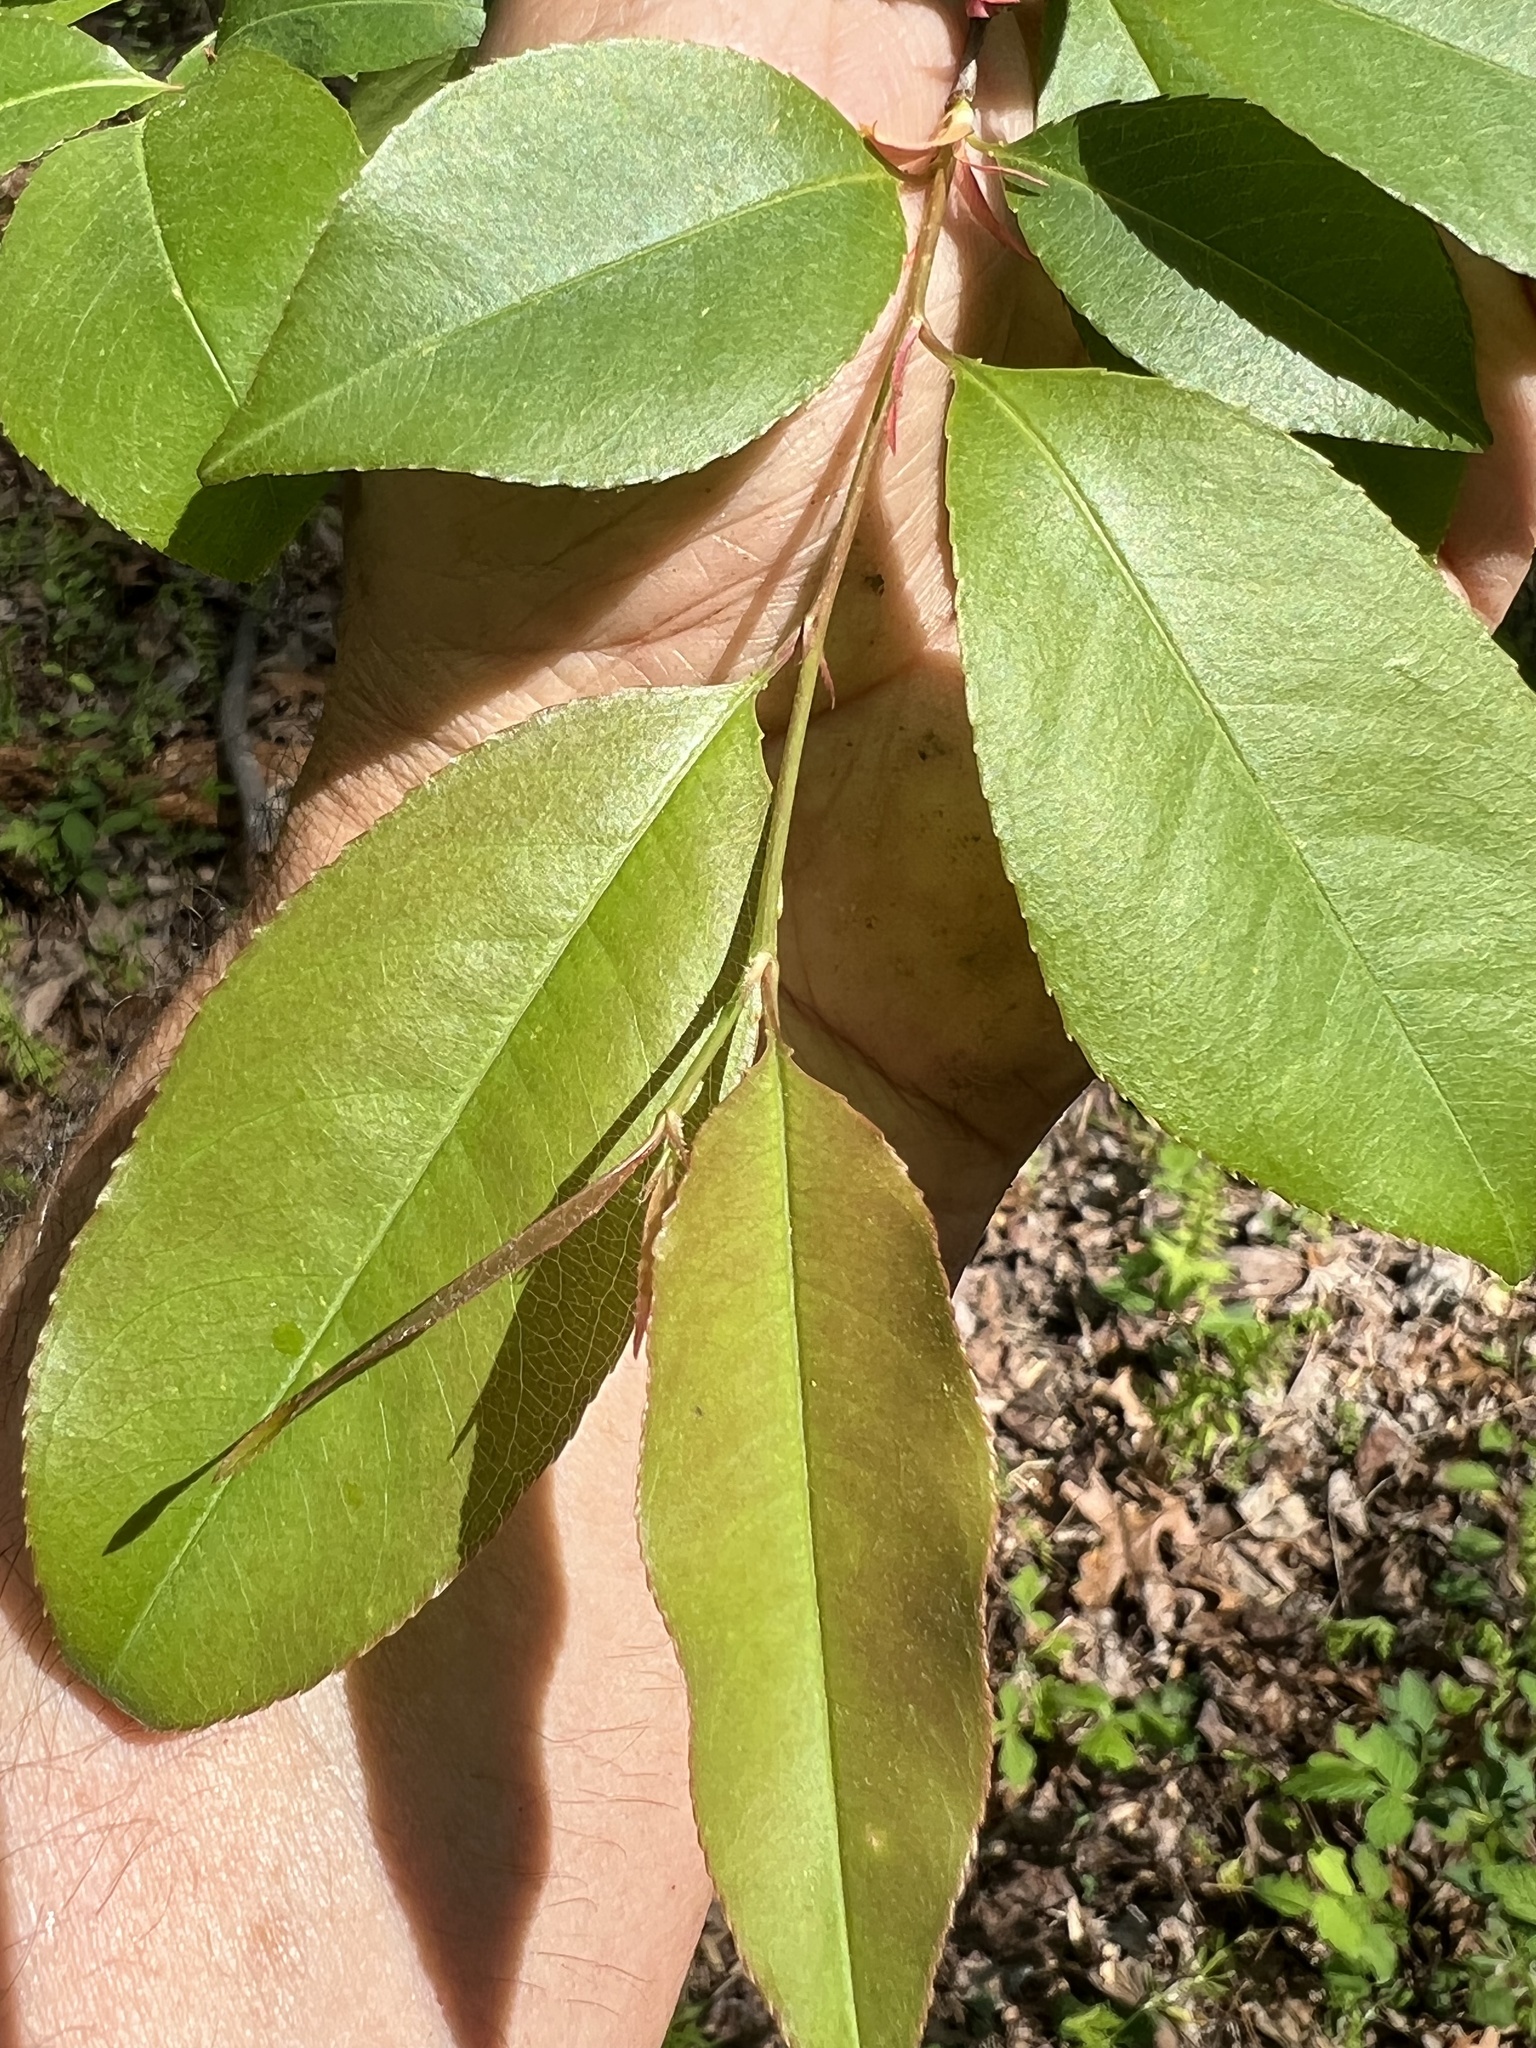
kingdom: Animalia
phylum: Arthropoda
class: Arachnida
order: Trombidiformes
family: Eriophyidae
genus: Eriophyes
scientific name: Eriophyes
